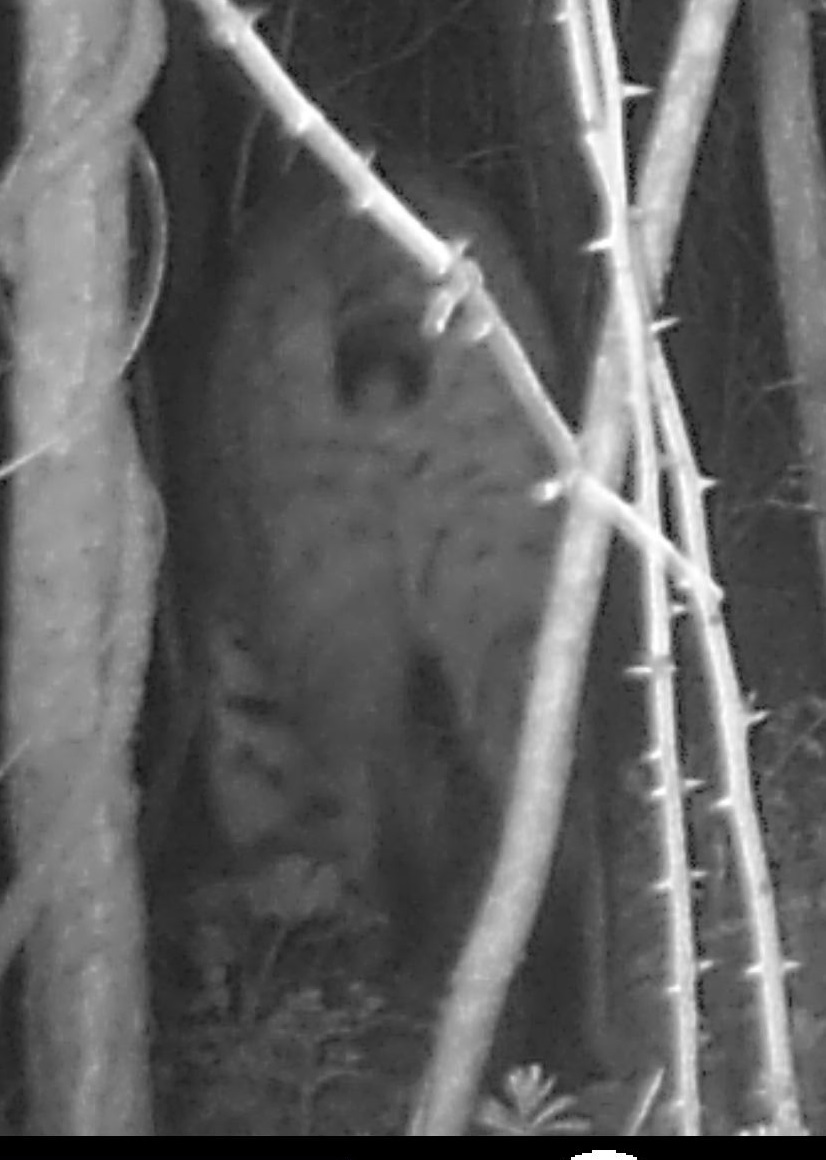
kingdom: Animalia
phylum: Chordata
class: Mammalia
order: Carnivora
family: Felidae
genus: Lynx
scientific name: Lynx rufus
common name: Bobcat
